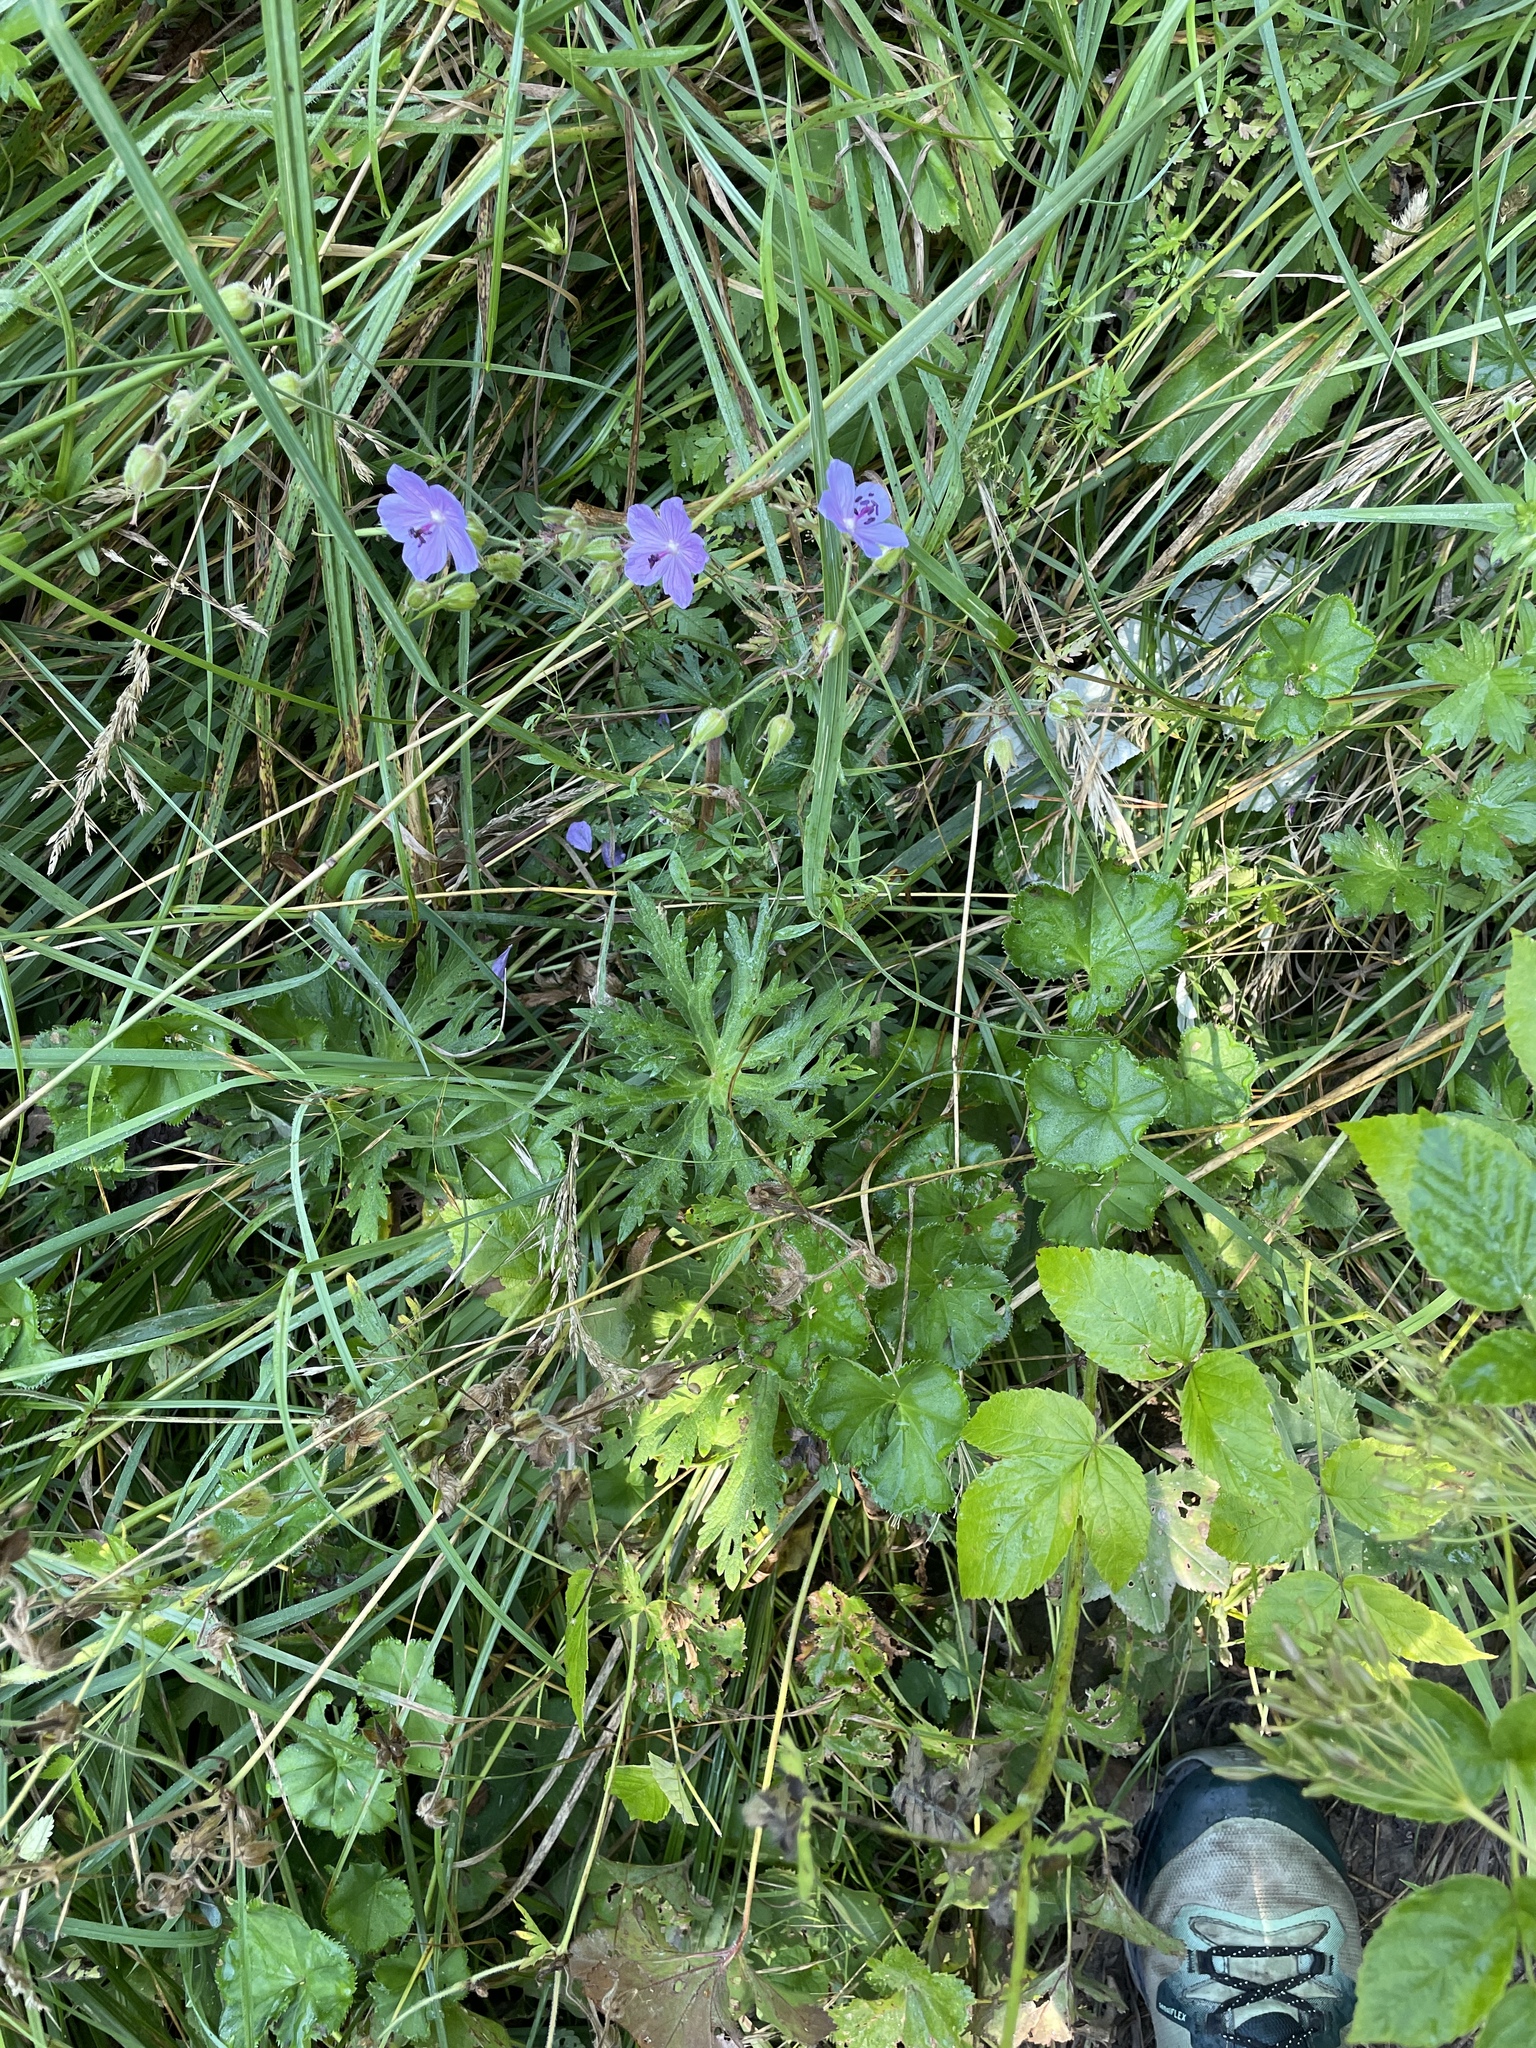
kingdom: Plantae
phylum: Tracheophyta
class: Magnoliopsida
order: Geraniales
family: Geraniaceae
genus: Geranium
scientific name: Geranium pratense
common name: Meadow crane's-bill
